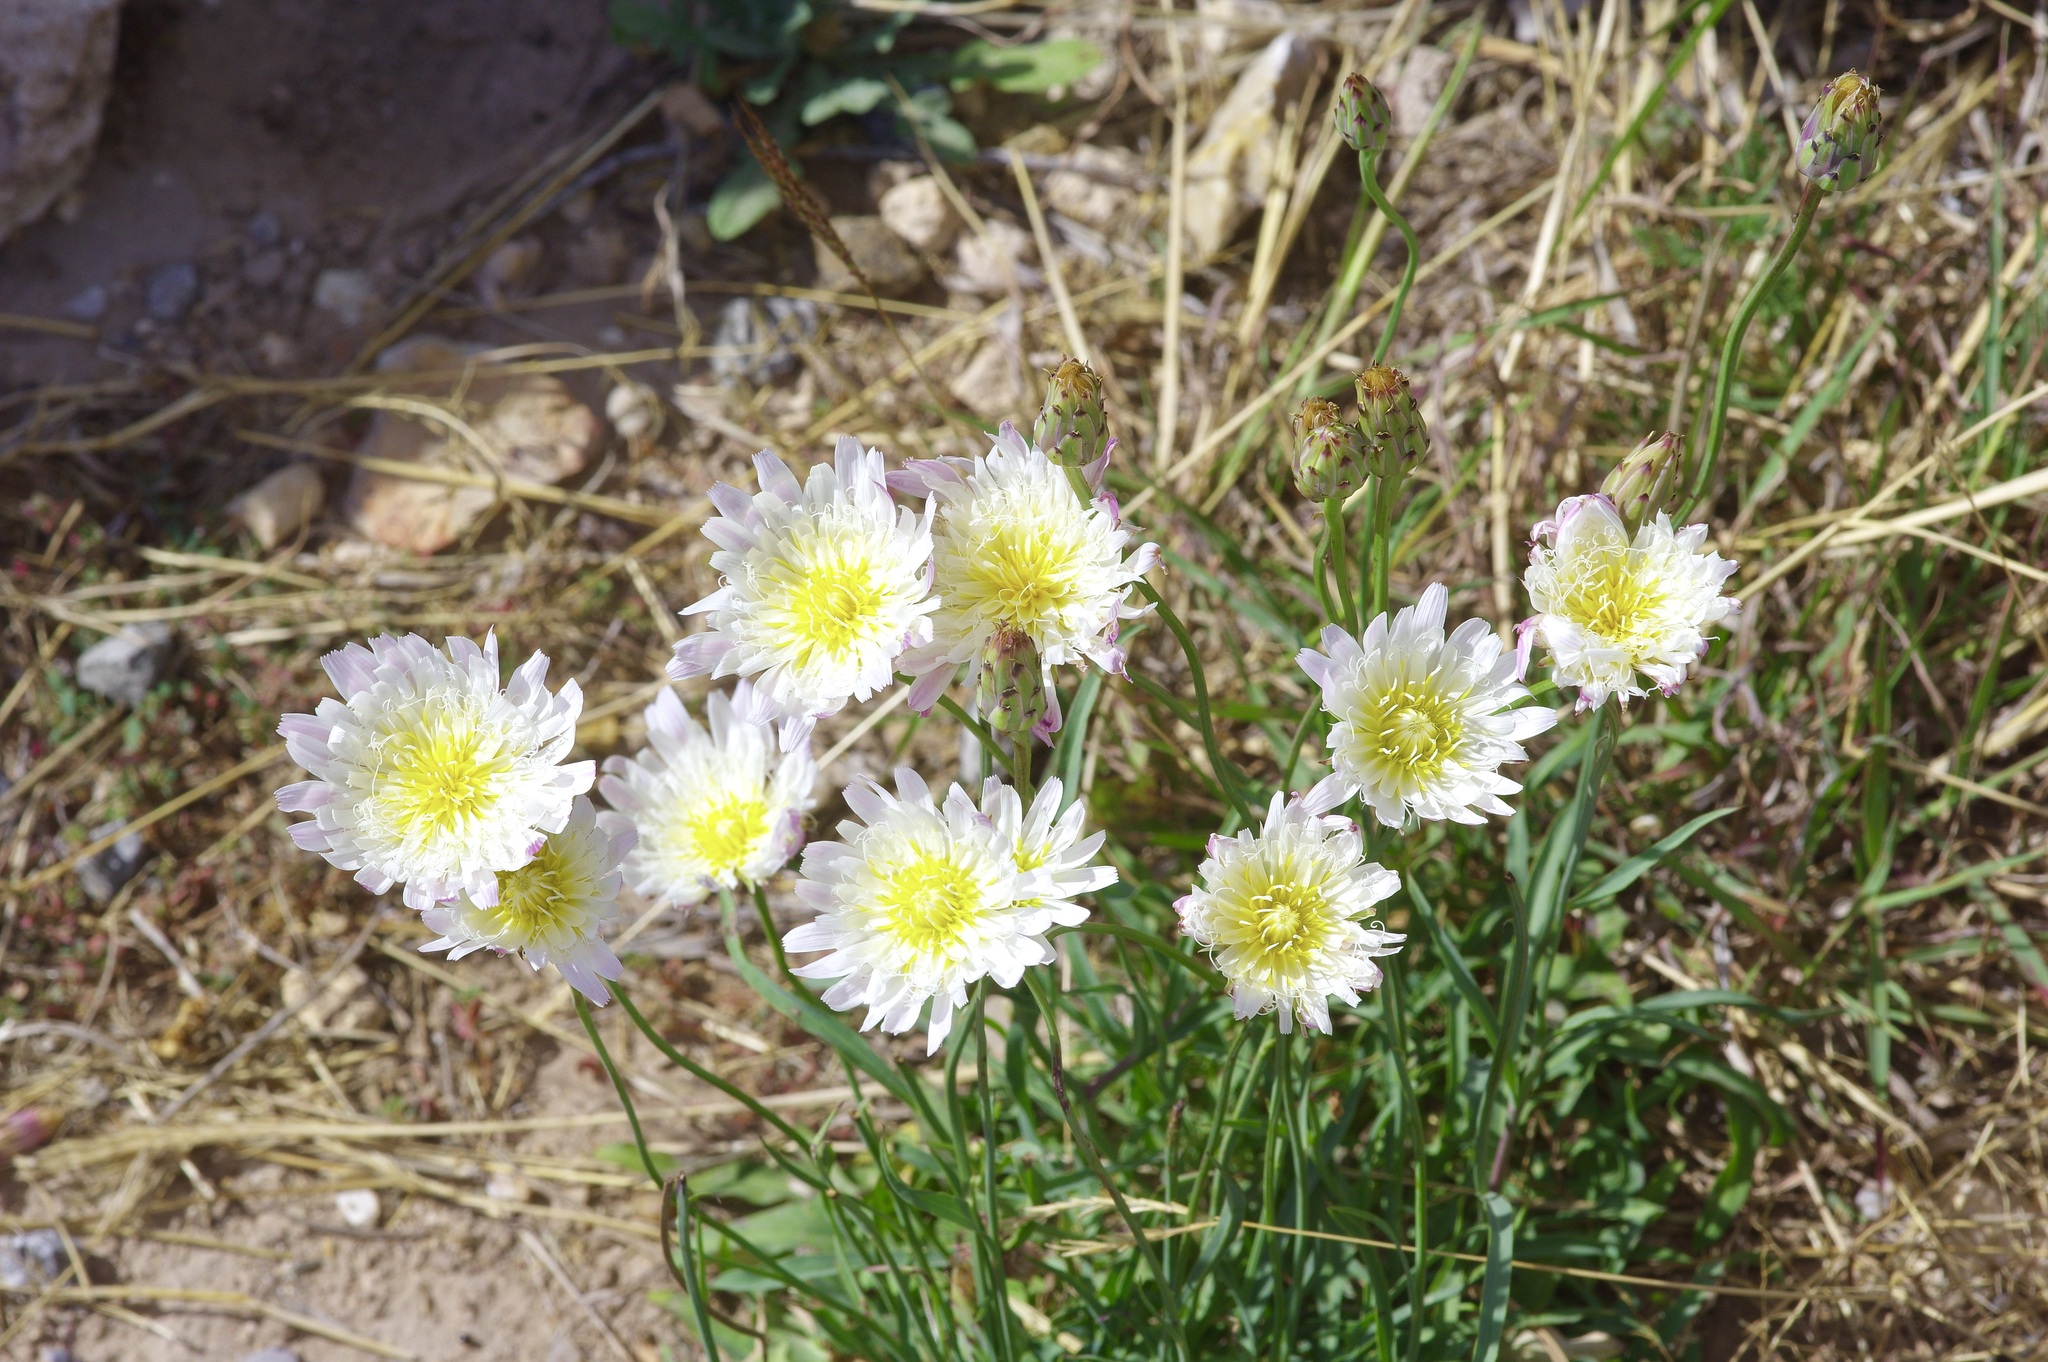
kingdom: Plantae
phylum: Tracheophyta
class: Magnoliopsida
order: Asterales
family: Asteraceae
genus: Pinaropappus
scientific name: Pinaropappus roseus
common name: Rock-lettuce
